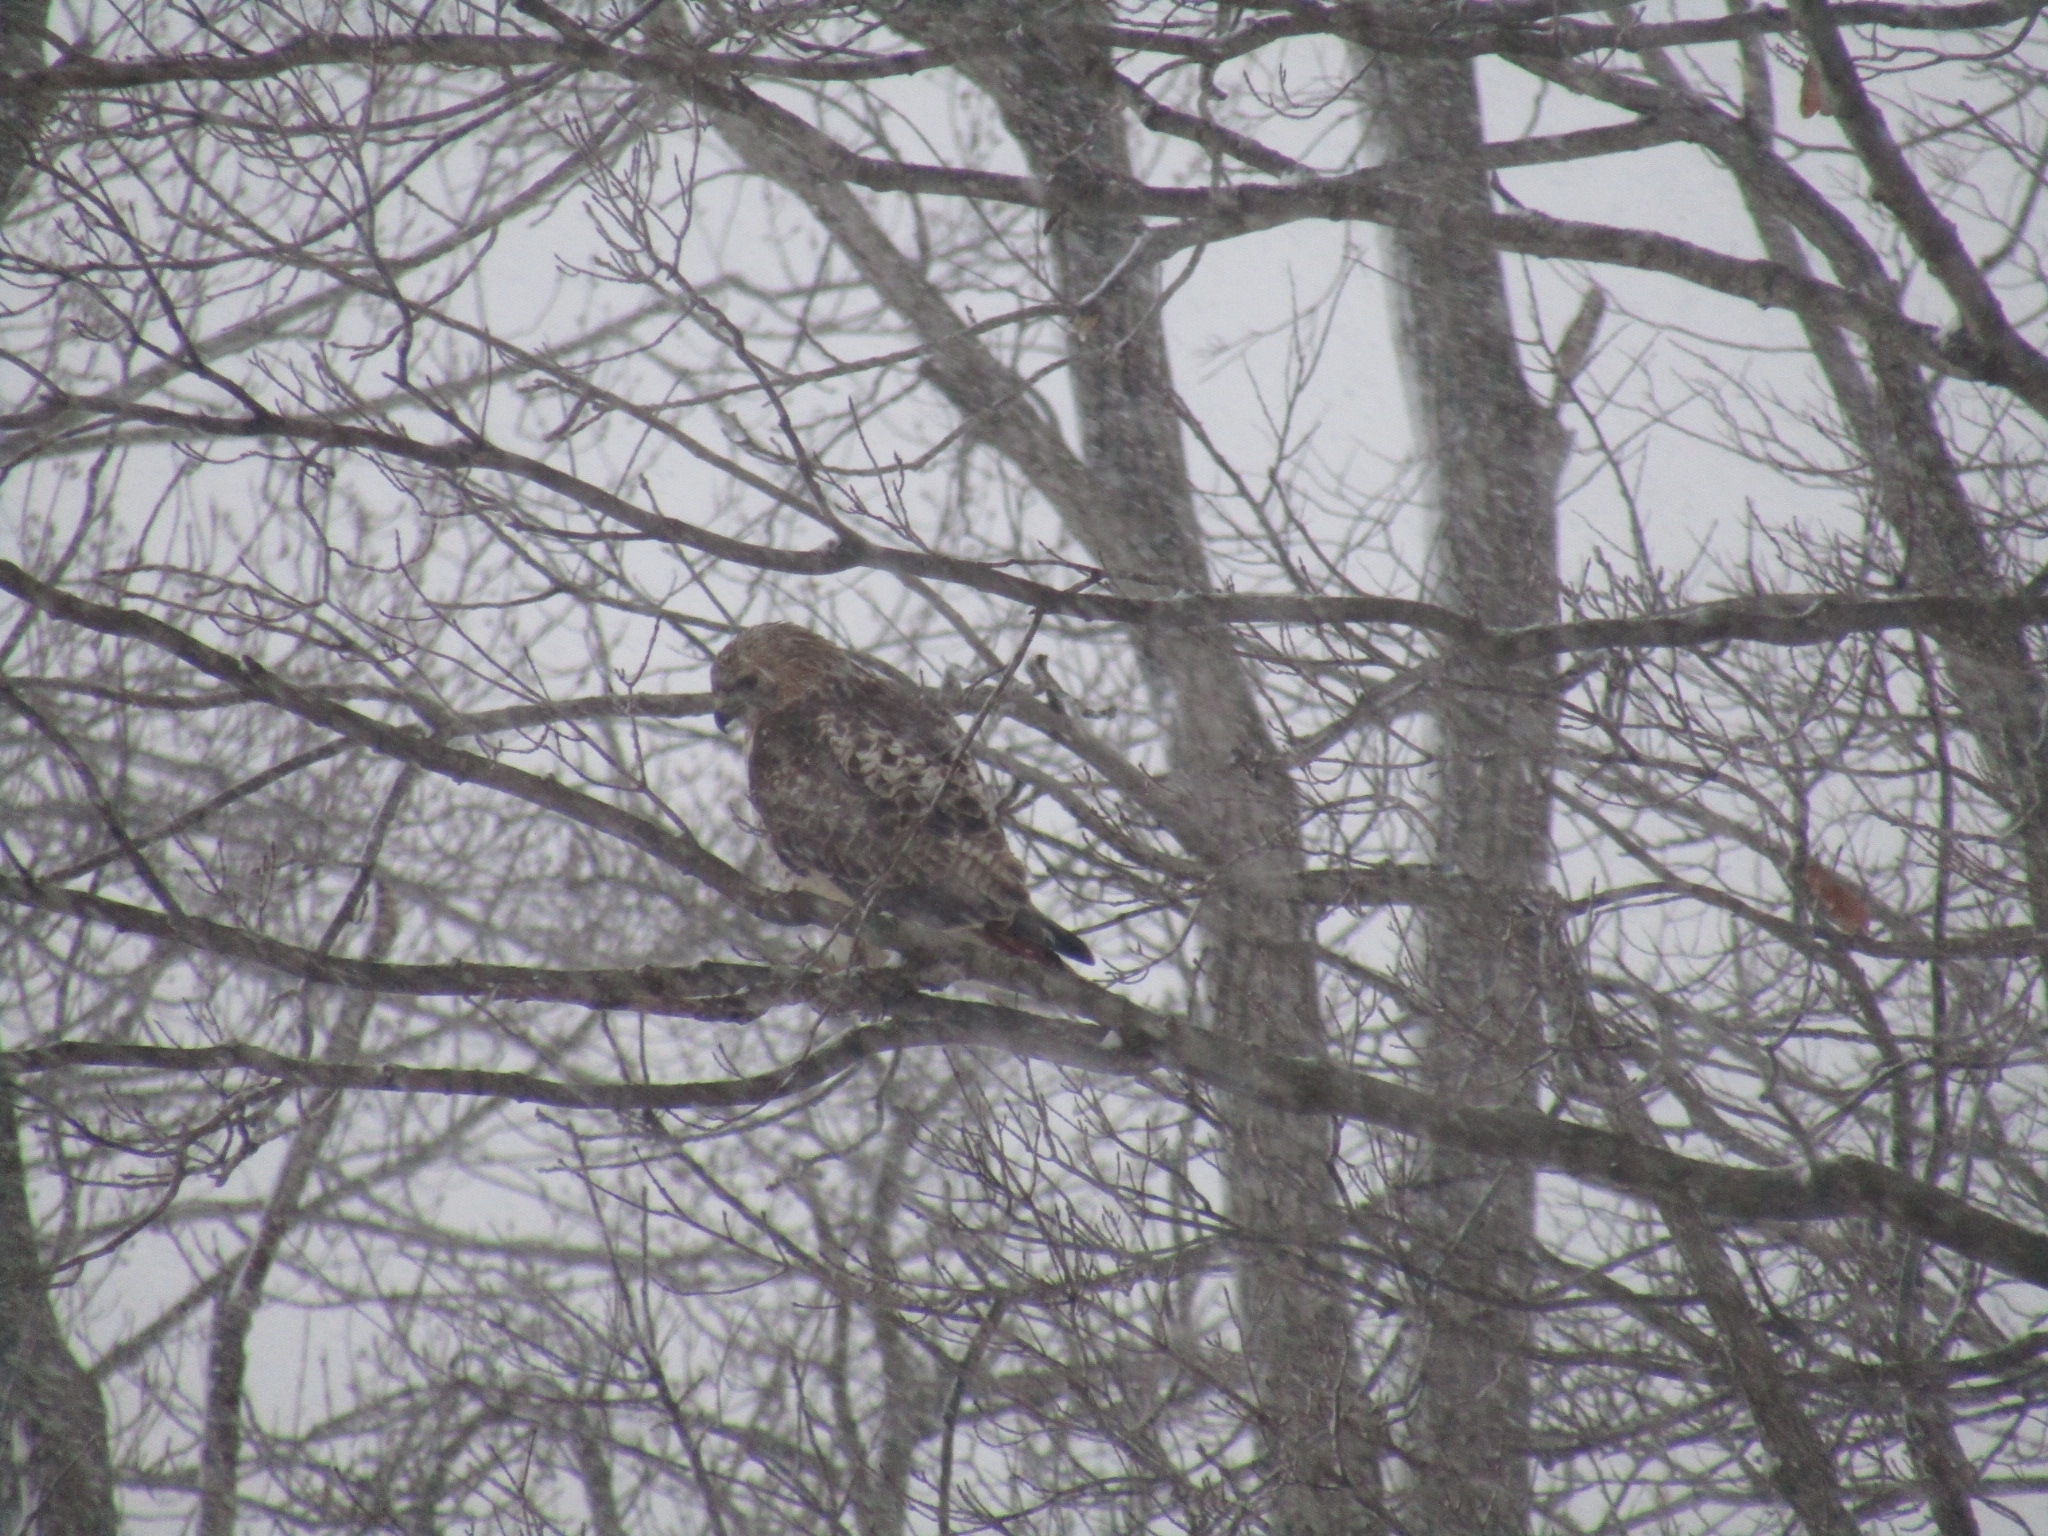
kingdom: Animalia
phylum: Chordata
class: Aves
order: Accipitriformes
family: Accipitridae
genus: Buteo
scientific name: Buteo jamaicensis
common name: Red-tailed hawk
